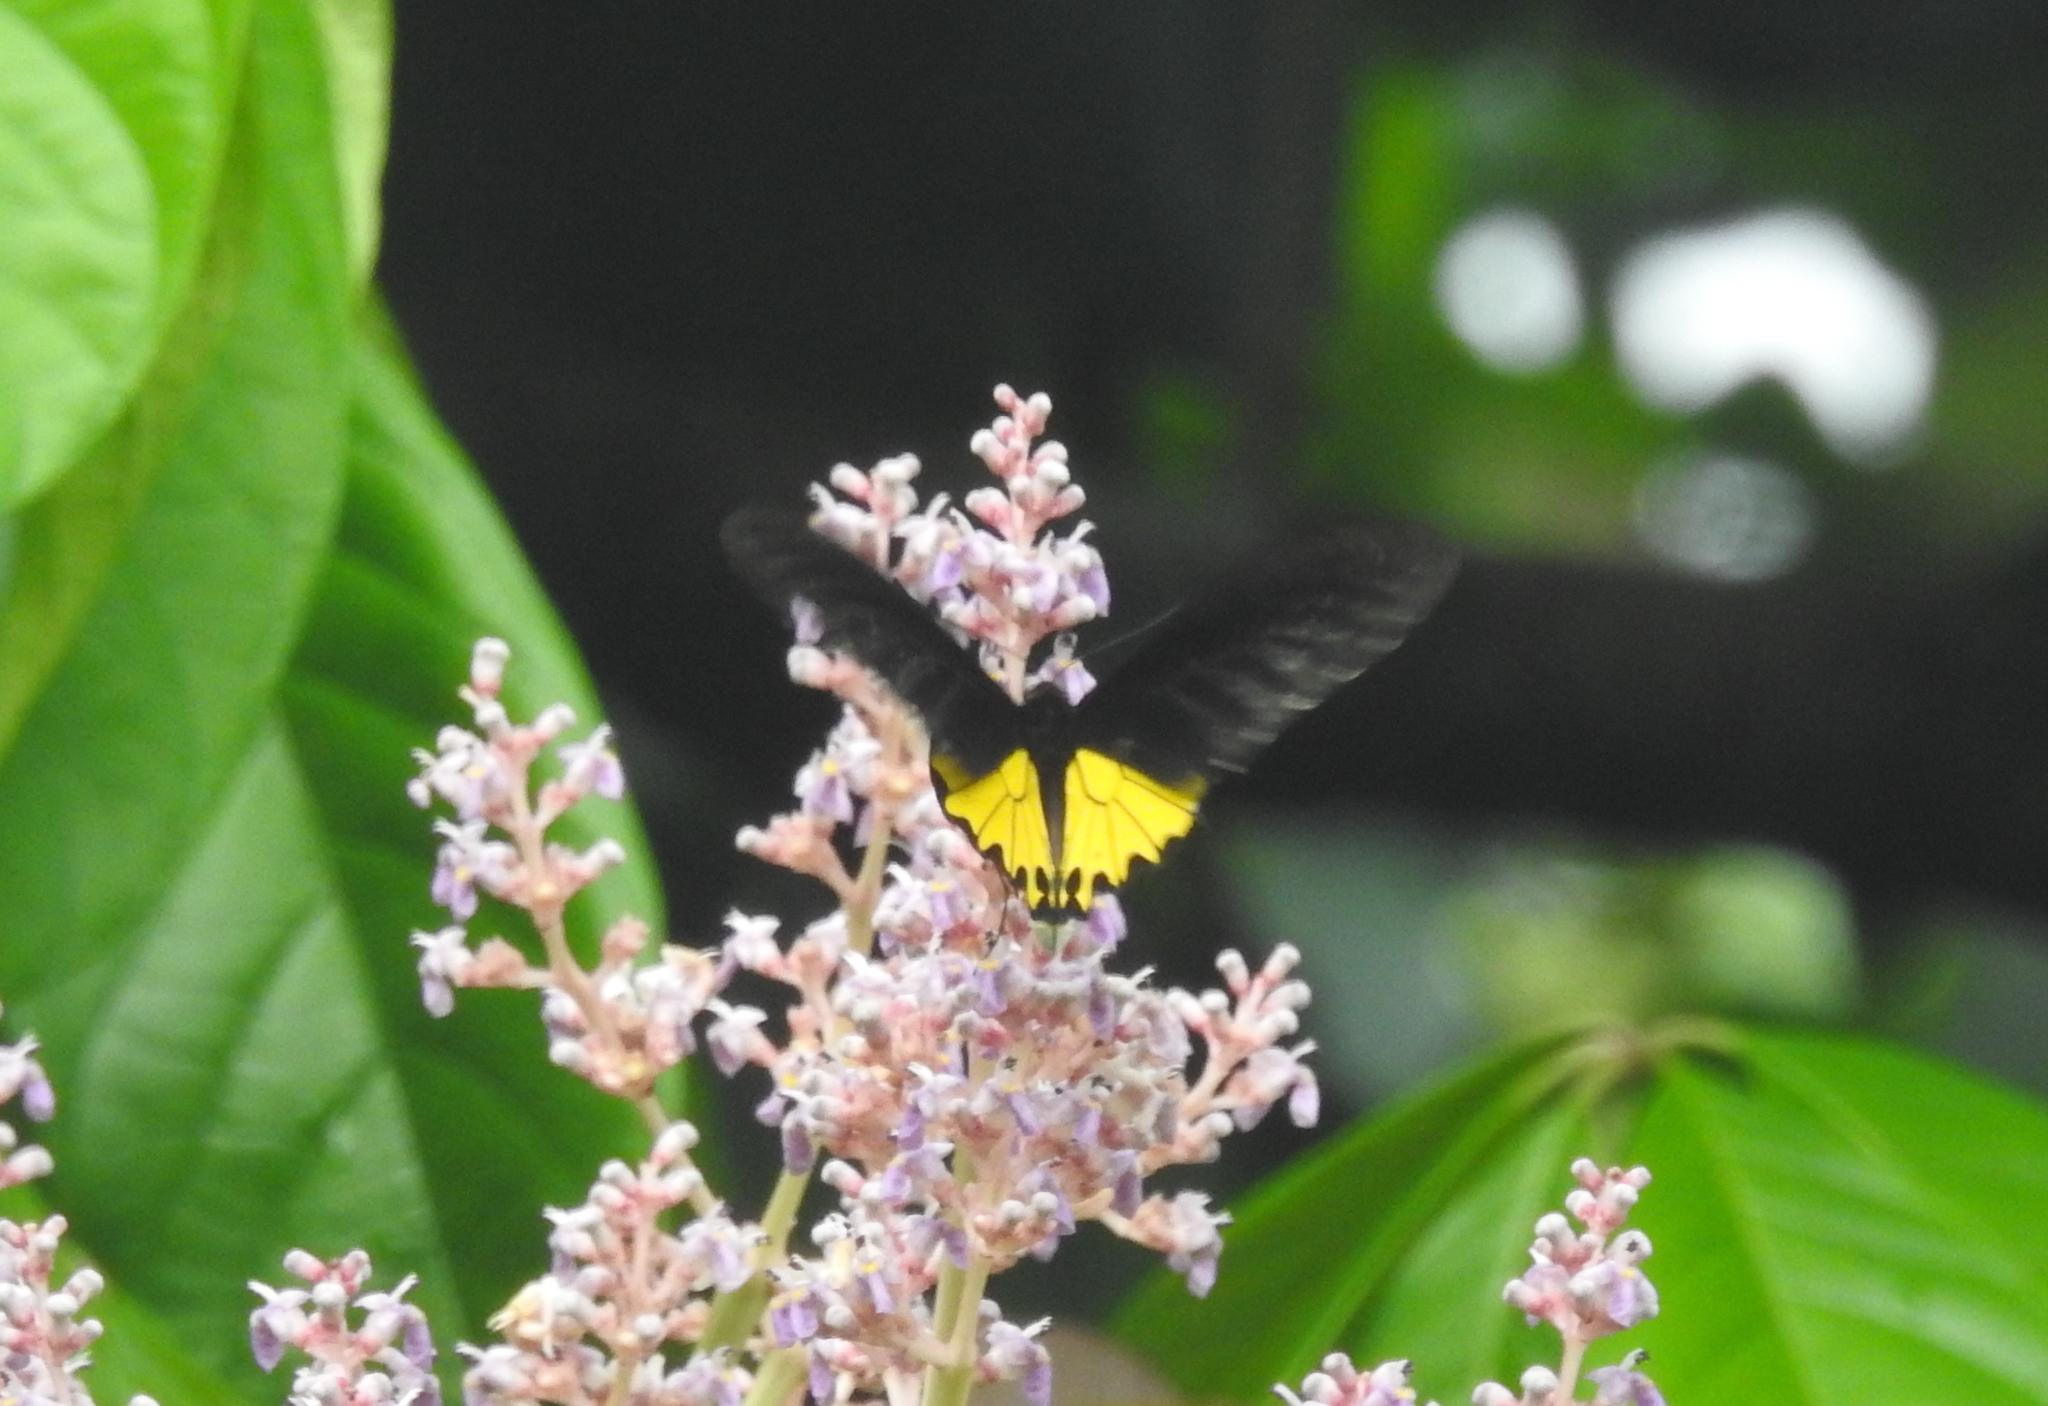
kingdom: Animalia
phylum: Arthropoda
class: Insecta
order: Lepidoptera
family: Papilionidae
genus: Troides
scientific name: Troides helena
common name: Common birdwing
